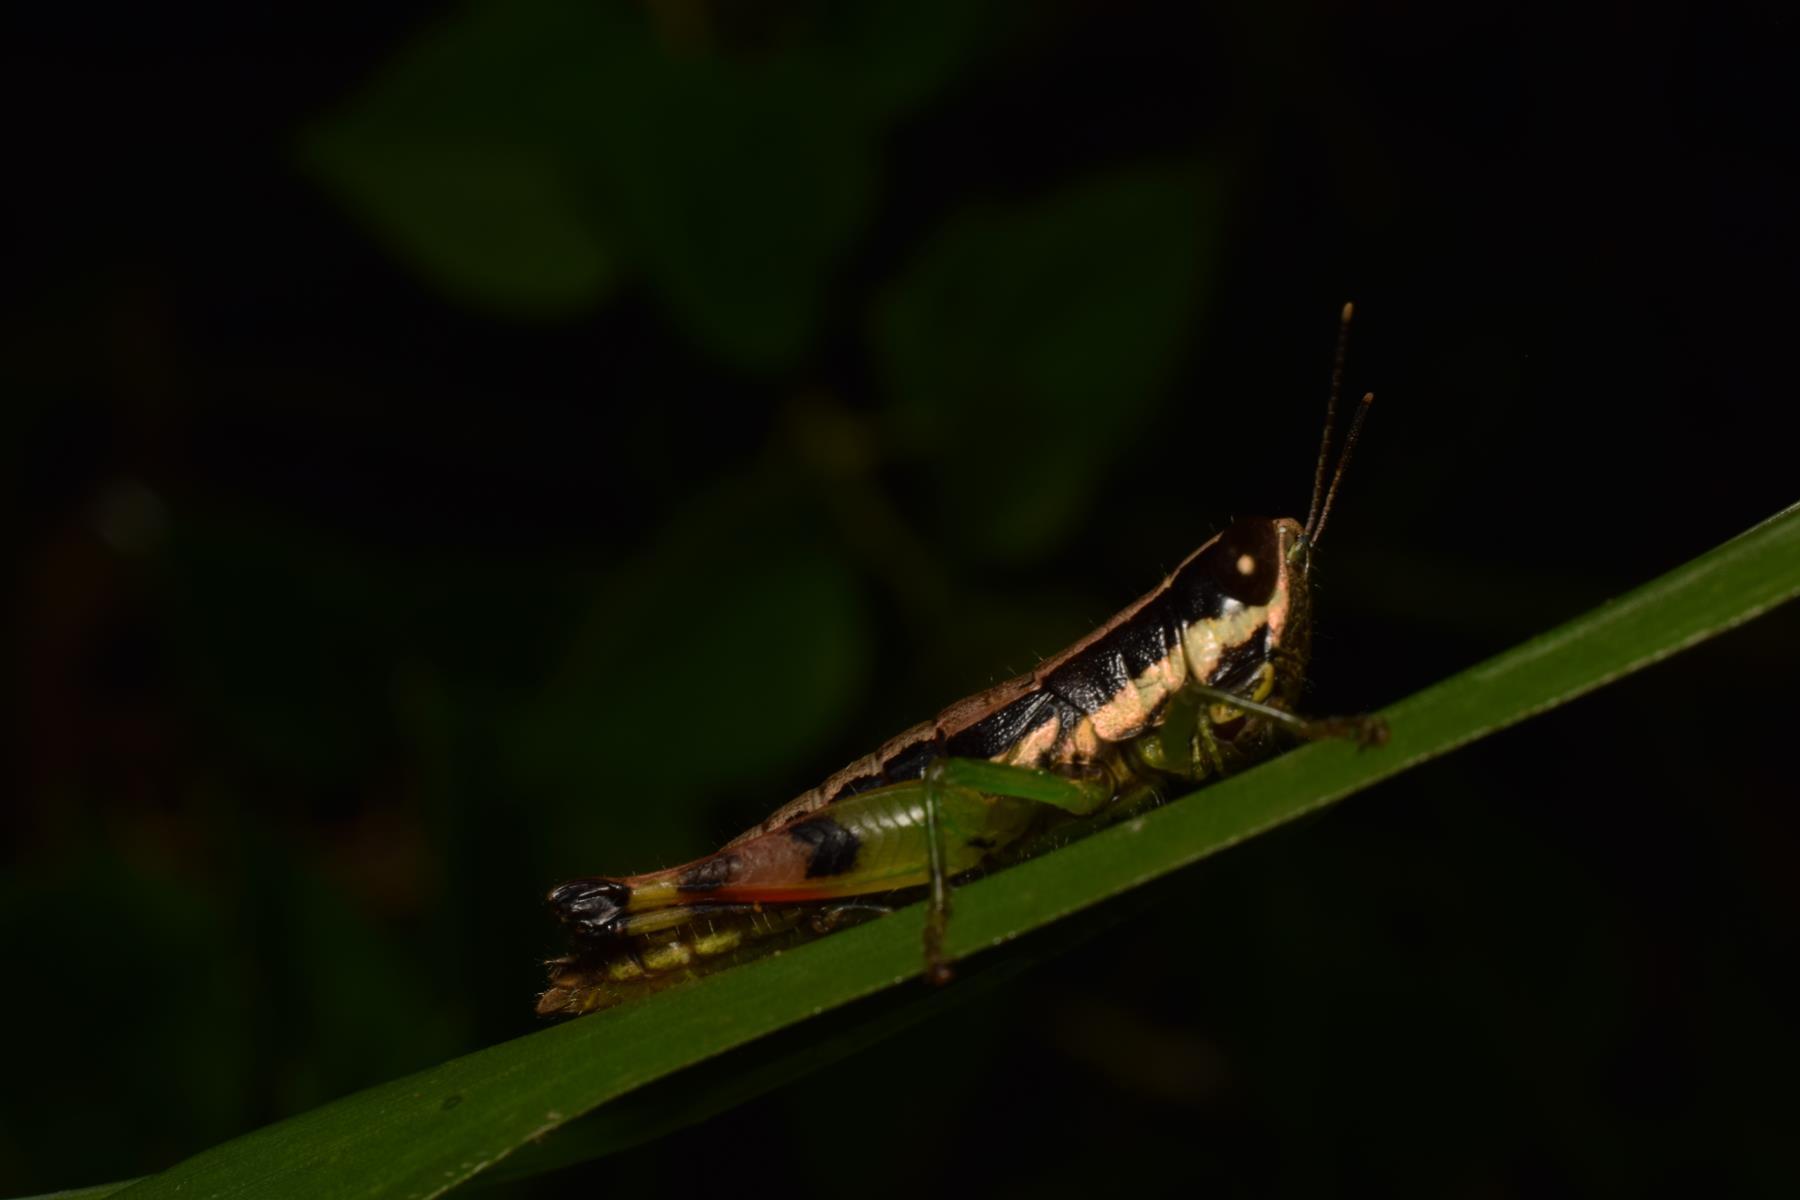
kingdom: Animalia
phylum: Arthropoda
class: Insecta
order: Orthoptera
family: Acrididae
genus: Chitaura
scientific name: Chitaura indica
